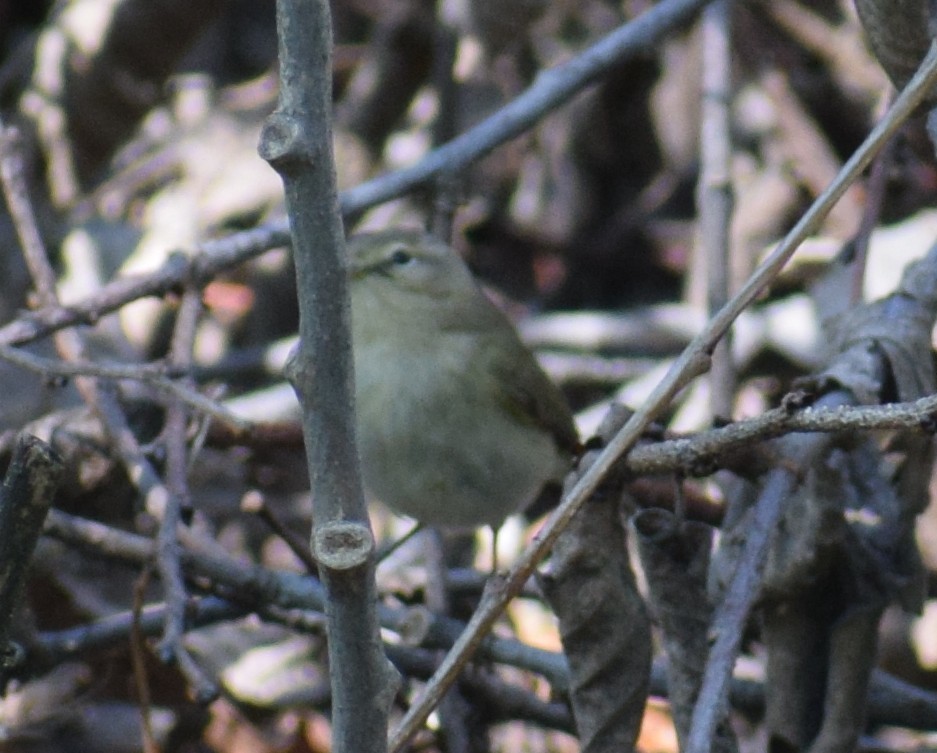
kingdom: Animalia
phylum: Chordata
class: Aves
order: Passeriformes
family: Phylloscopidae
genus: Phylloscopus
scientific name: Phylloscopus collybita
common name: Common chiffchaff
